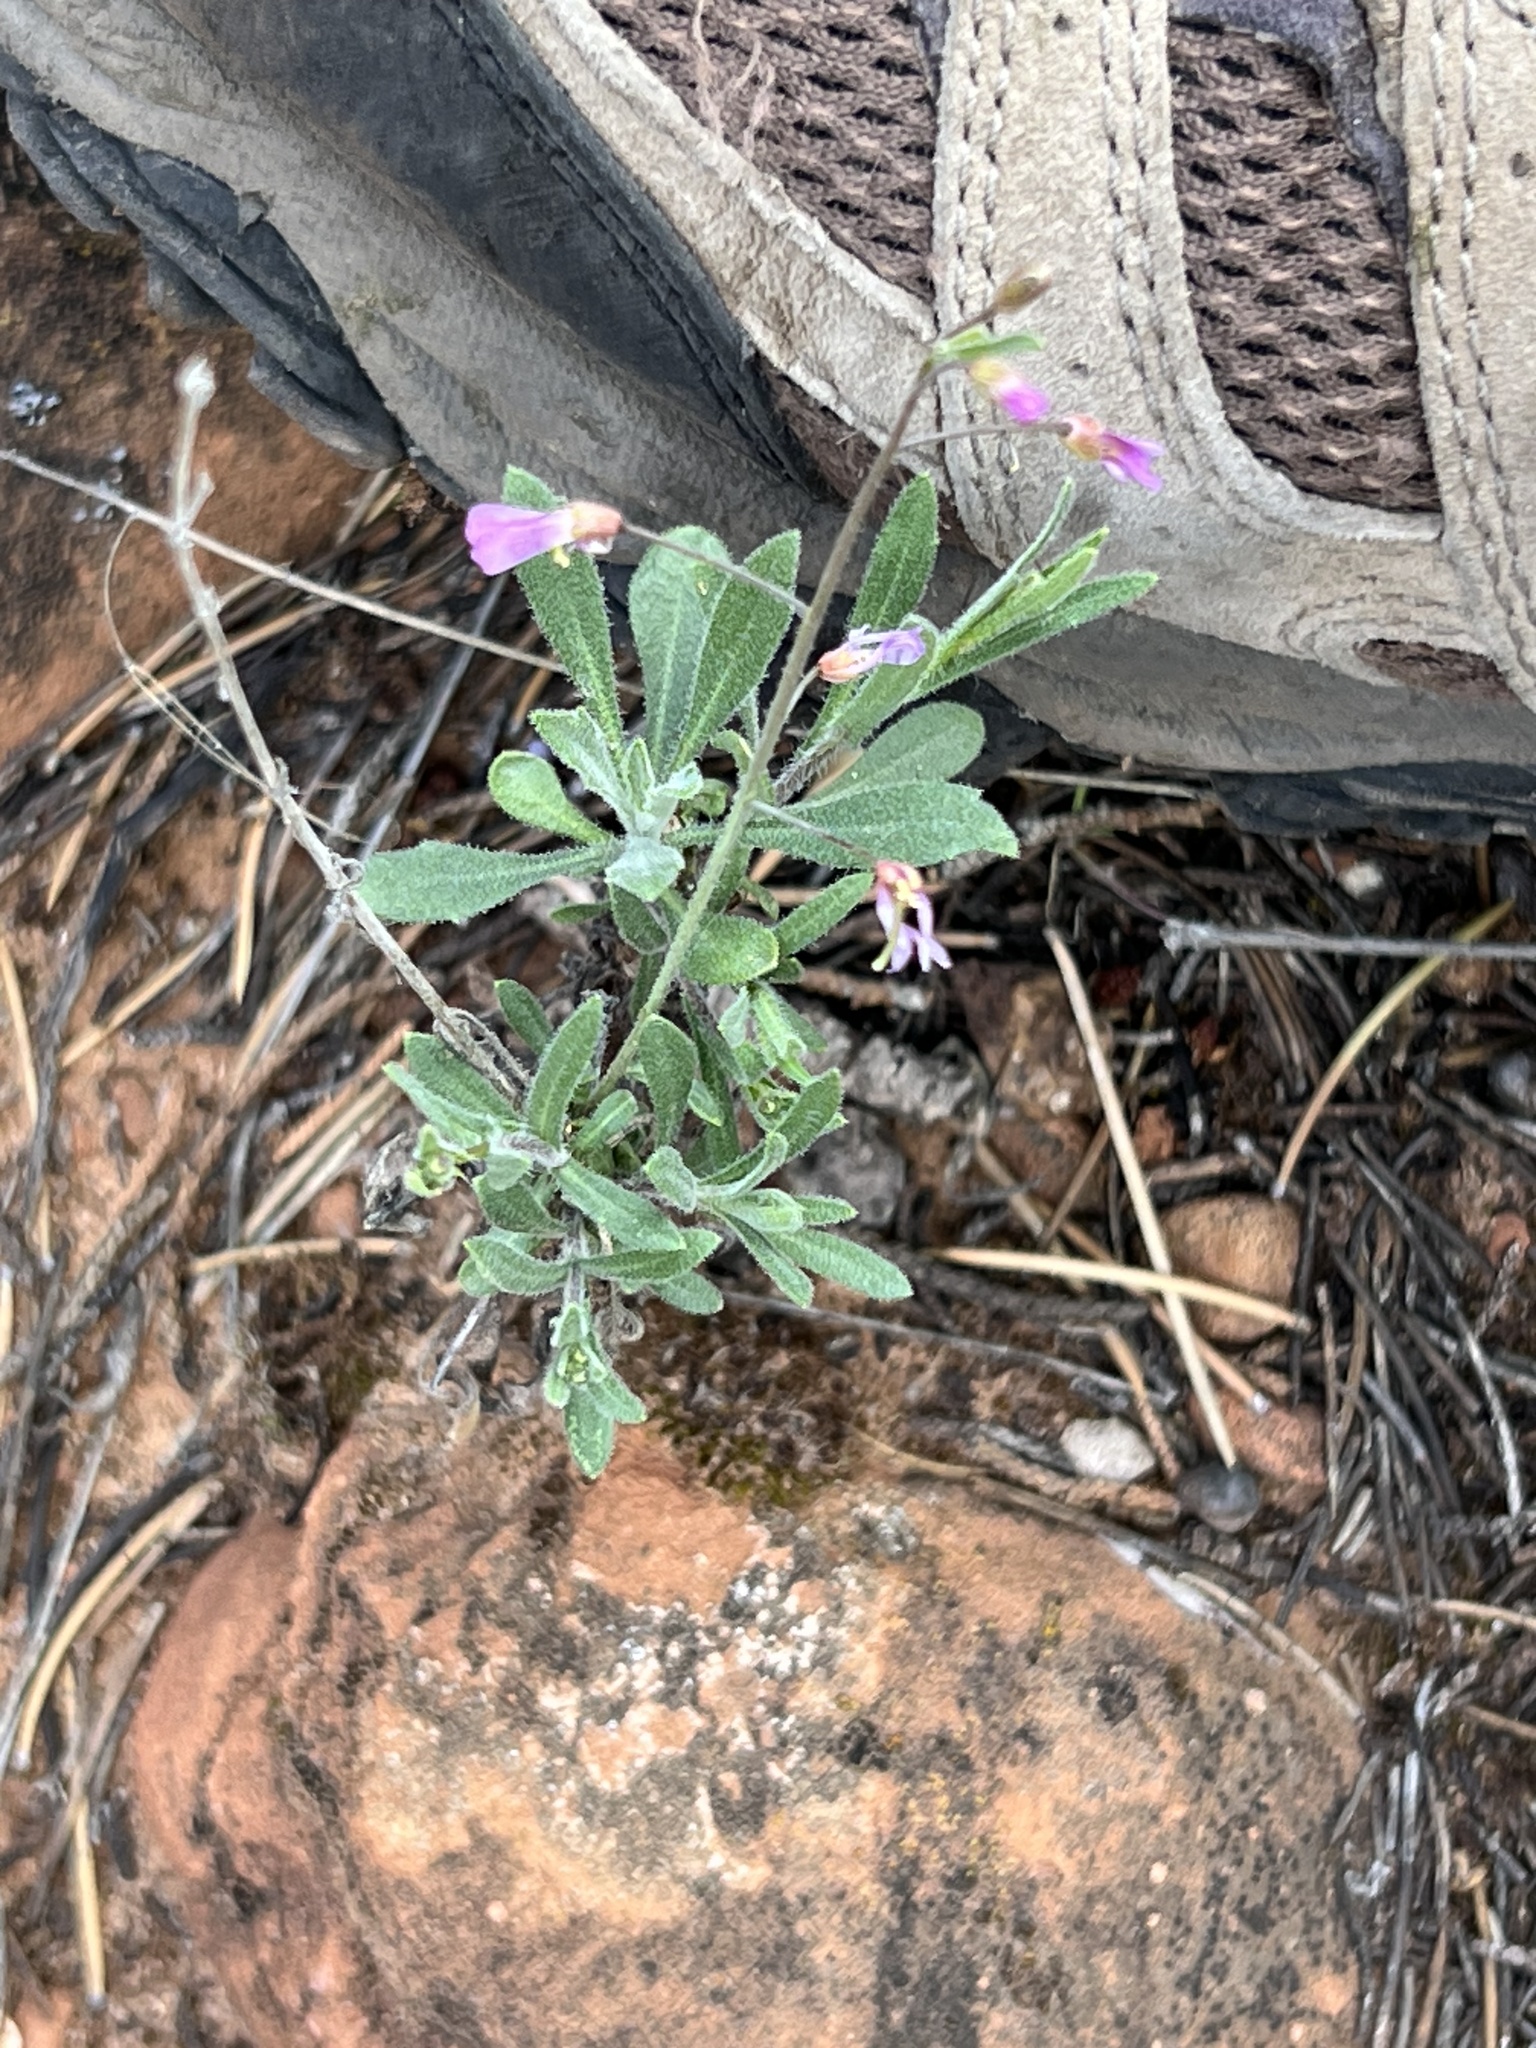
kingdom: Plantae
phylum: Tracheophyta
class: Magnoliopsida
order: Brassicales
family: Brassicaceae
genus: Boechera
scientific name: Boechera perennans
